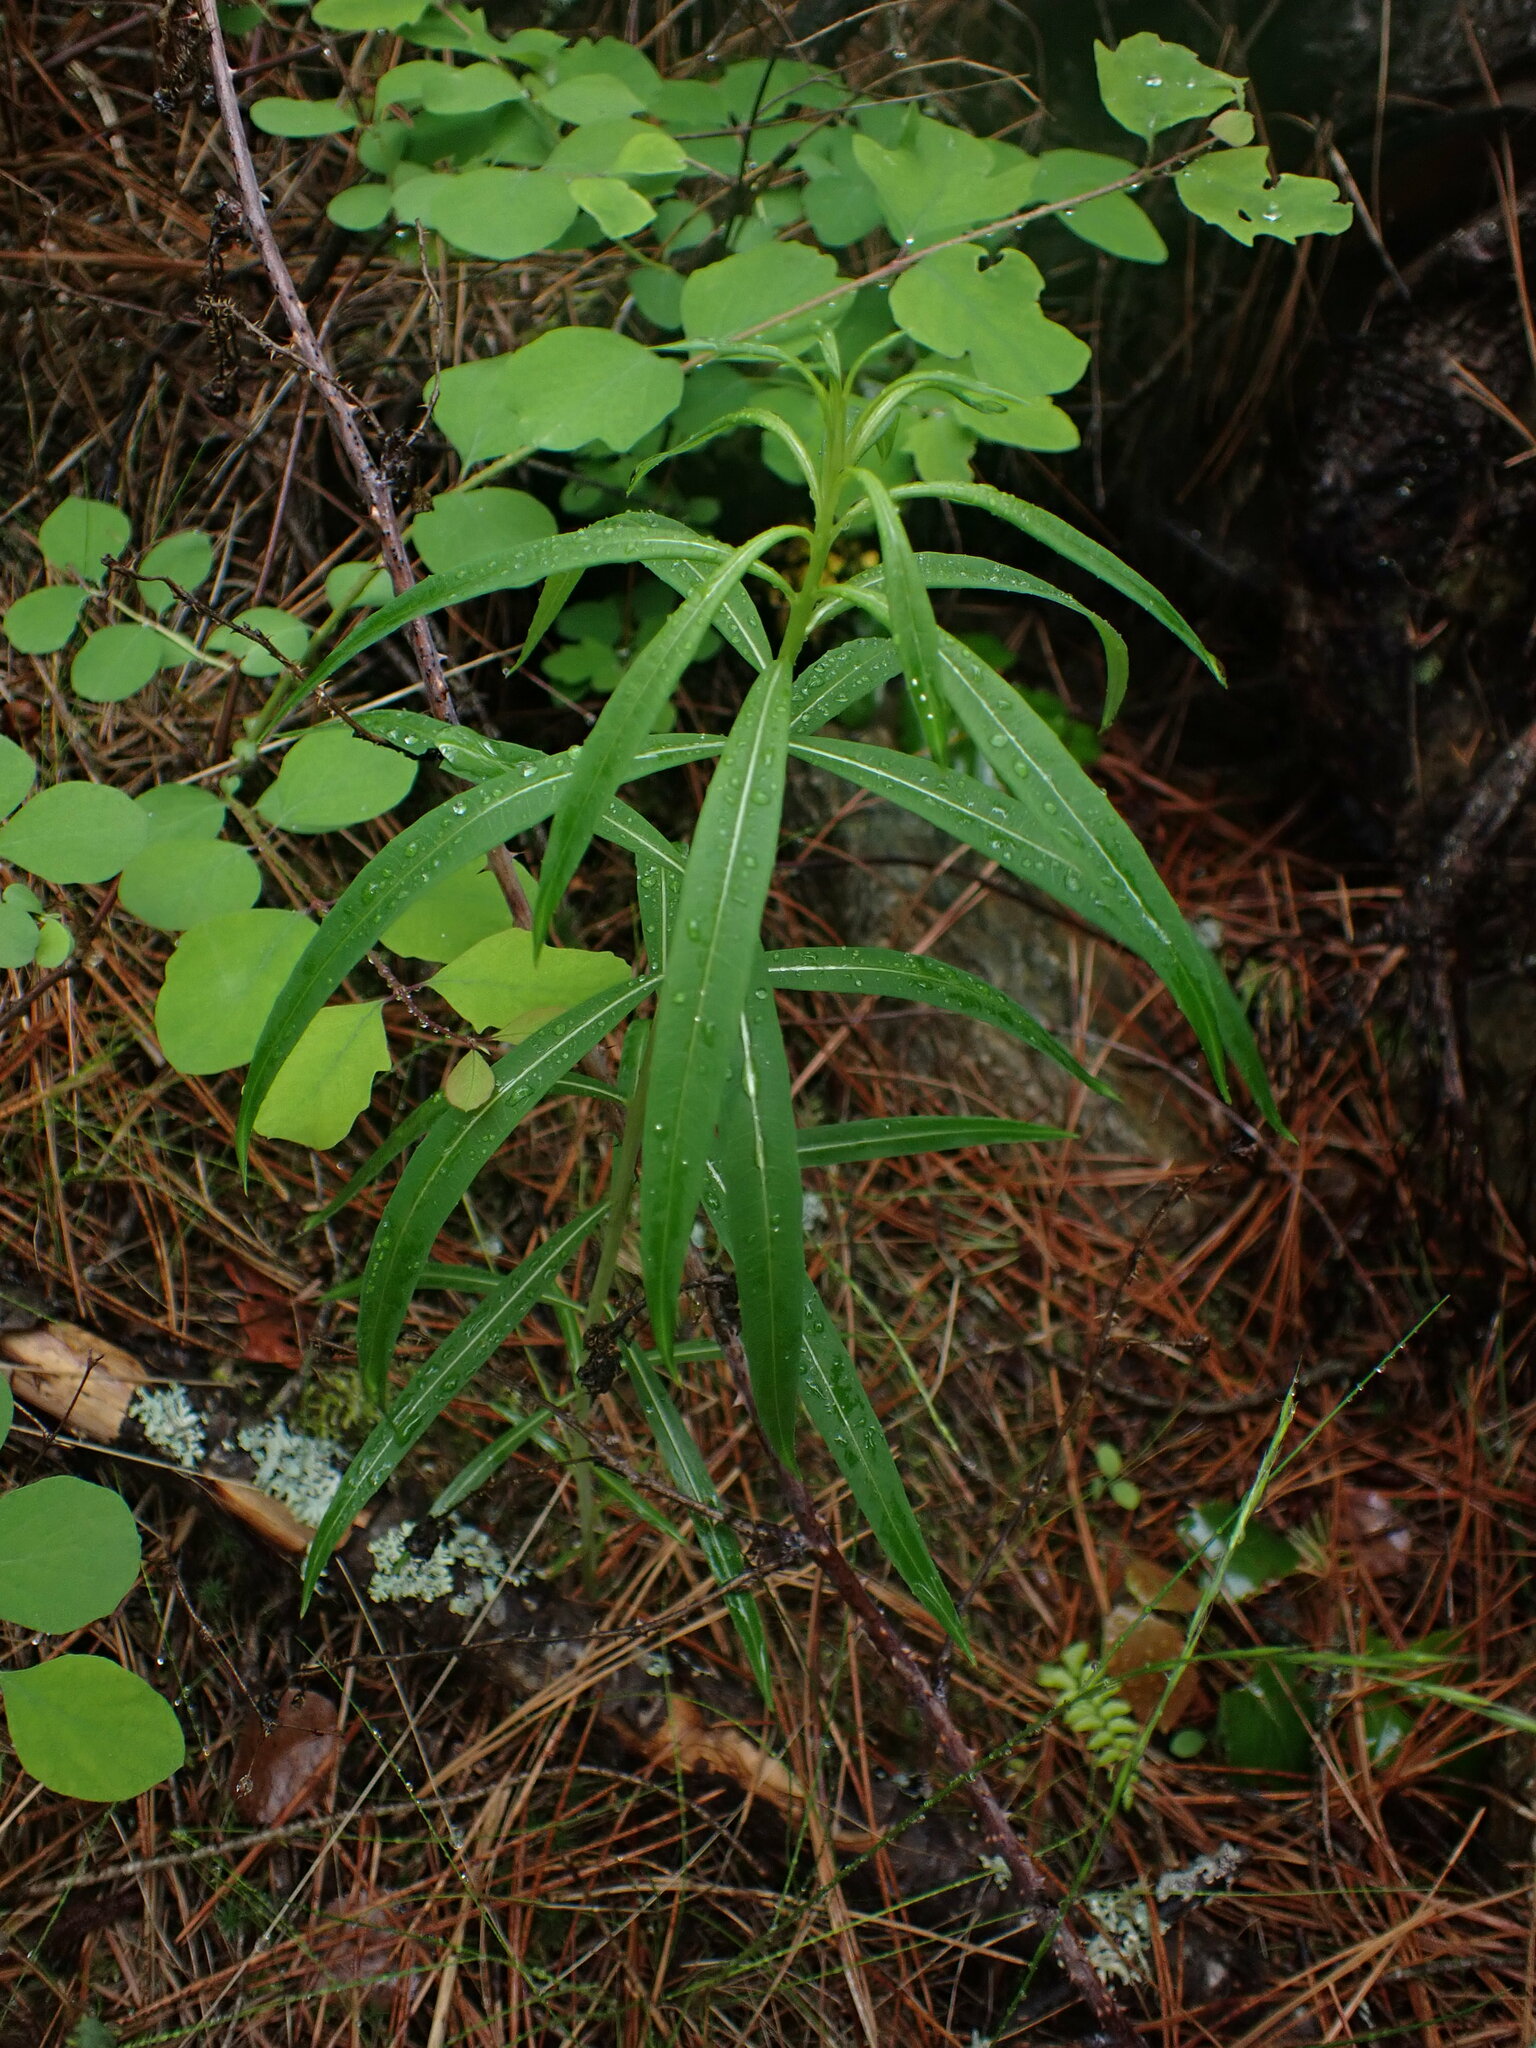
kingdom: Plantae
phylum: Tracheophyta
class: Magnoliopsida
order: Myrtales
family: Onagraceae
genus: Chamaenerion
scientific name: Chamaenerion angustifolium
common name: Fireweed
